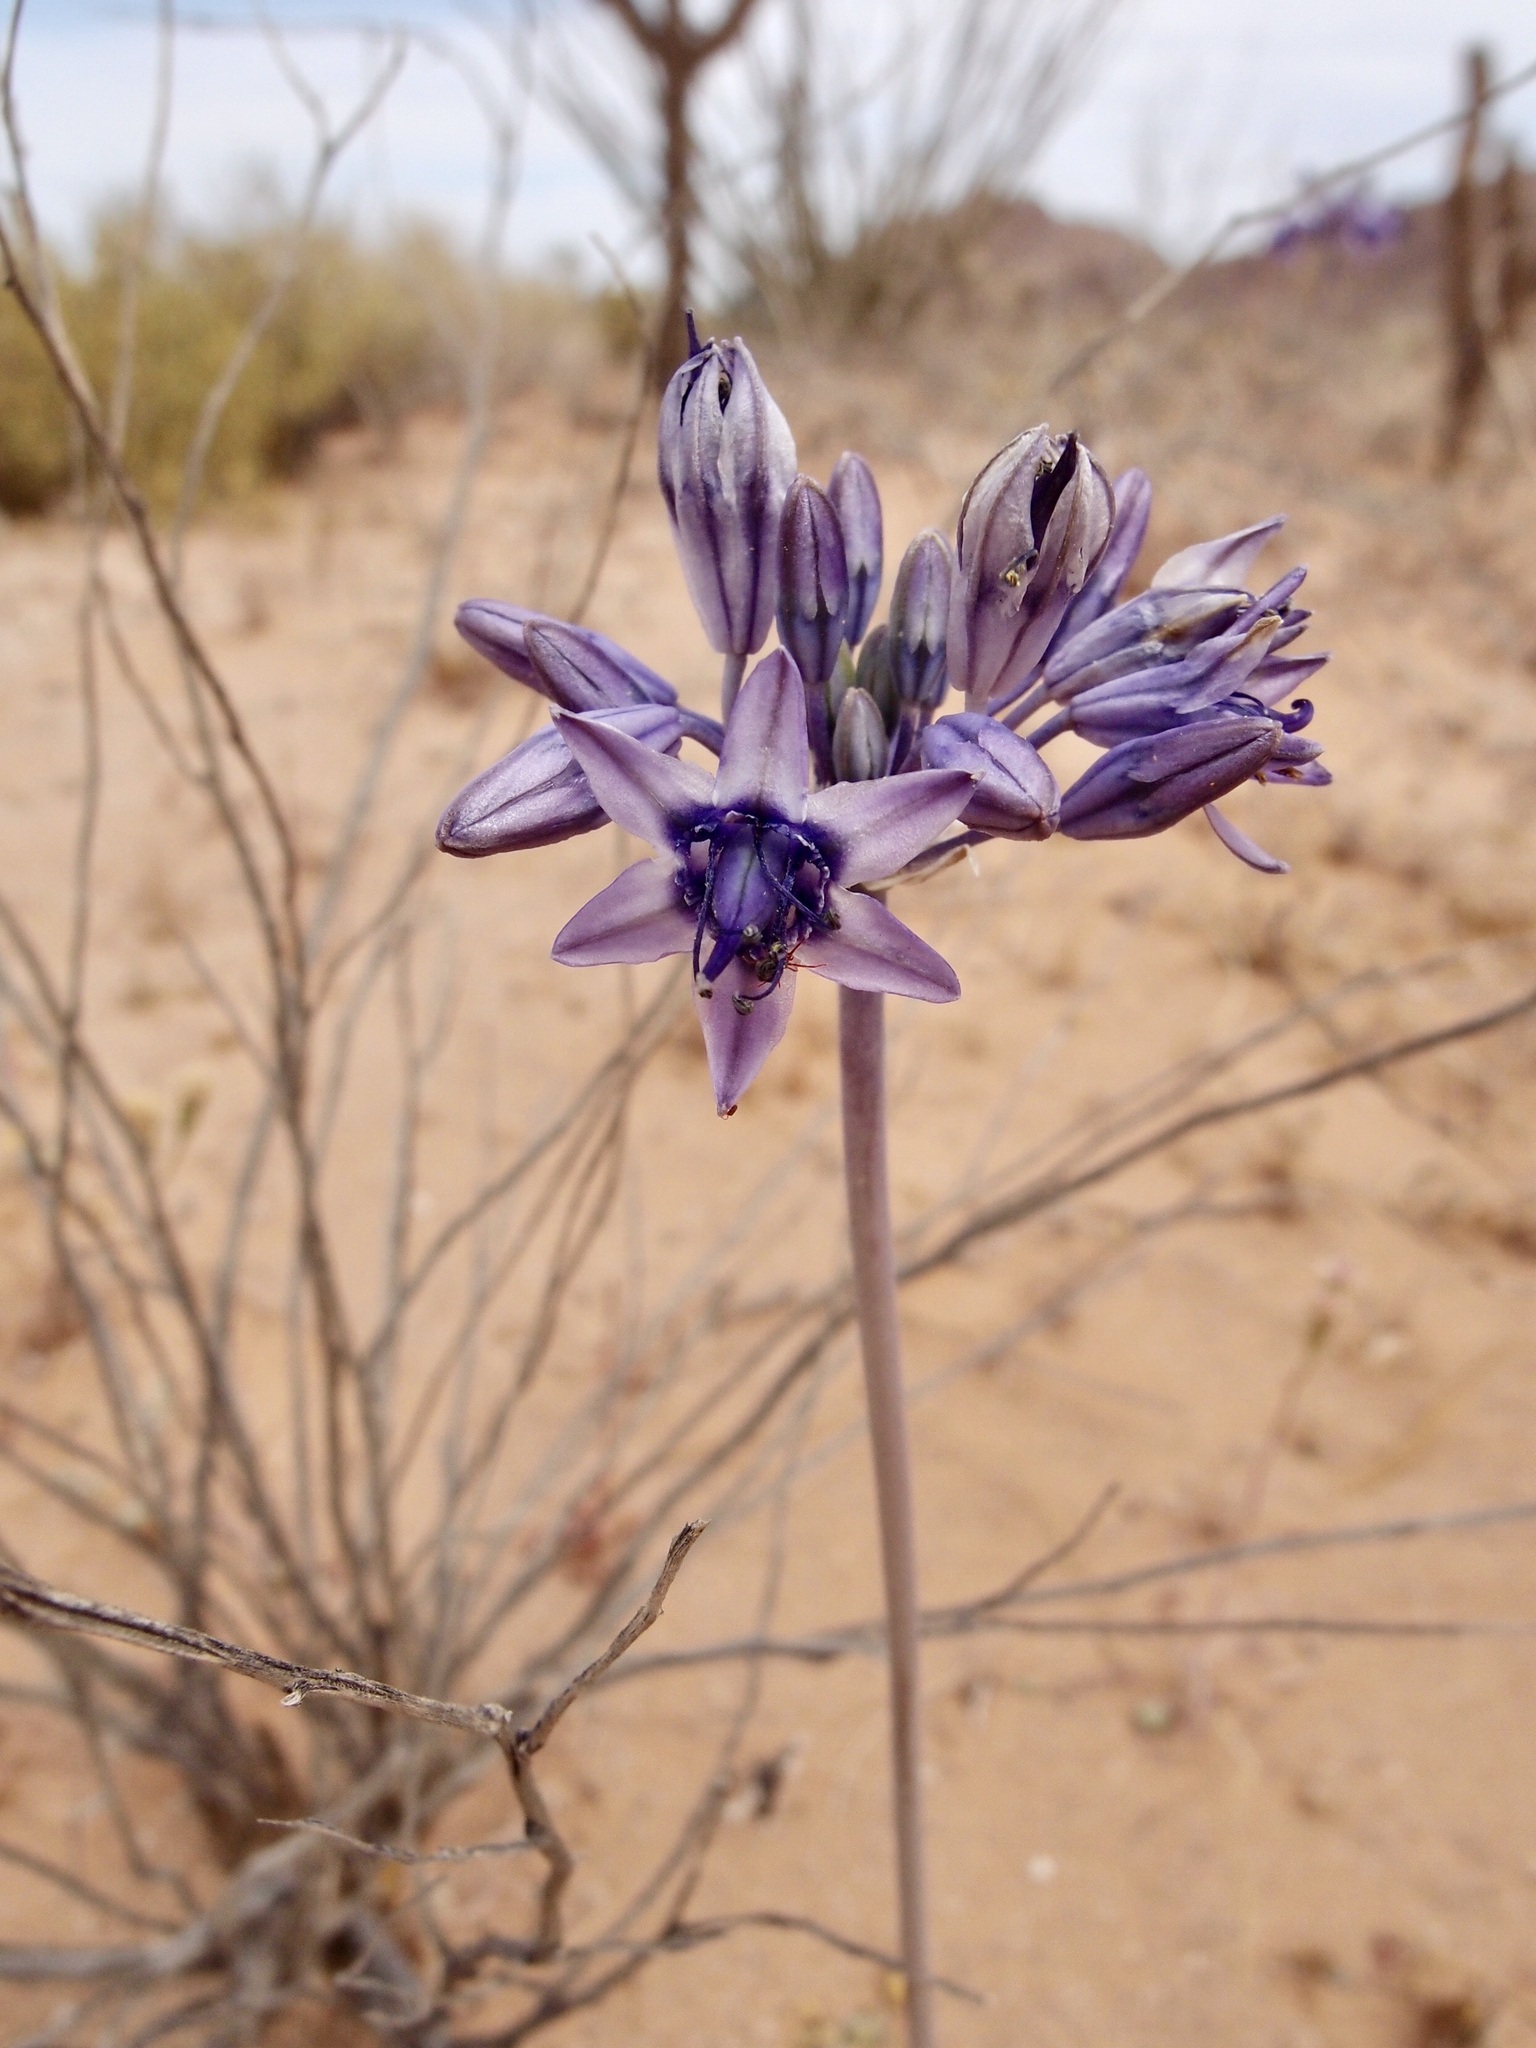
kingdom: Plantae
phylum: Tracheophyta
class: Liliopsida
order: Asparagales
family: Asparagaceae
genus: Triteleiopsis
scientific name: Triteleiopsis palmeri
